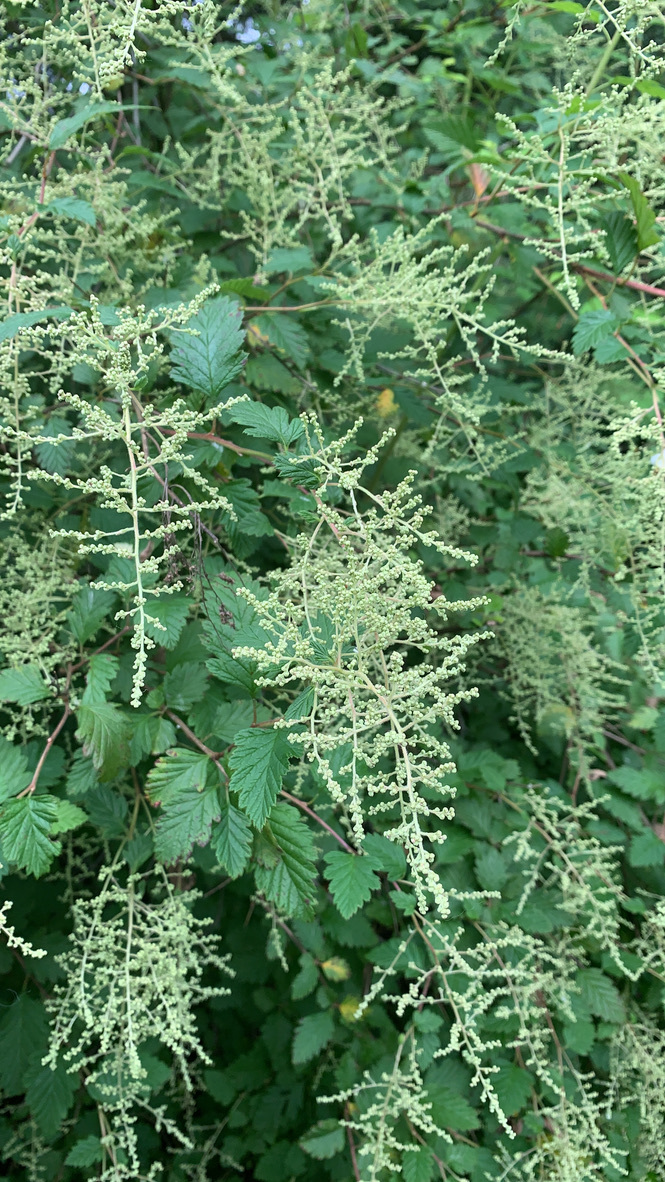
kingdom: Plantae
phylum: Tracheophyta
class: Magnoliopsida
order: Rosales
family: Rosaceae
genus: Holodiscus
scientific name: Holodiscus discolor
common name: Oceanspray
